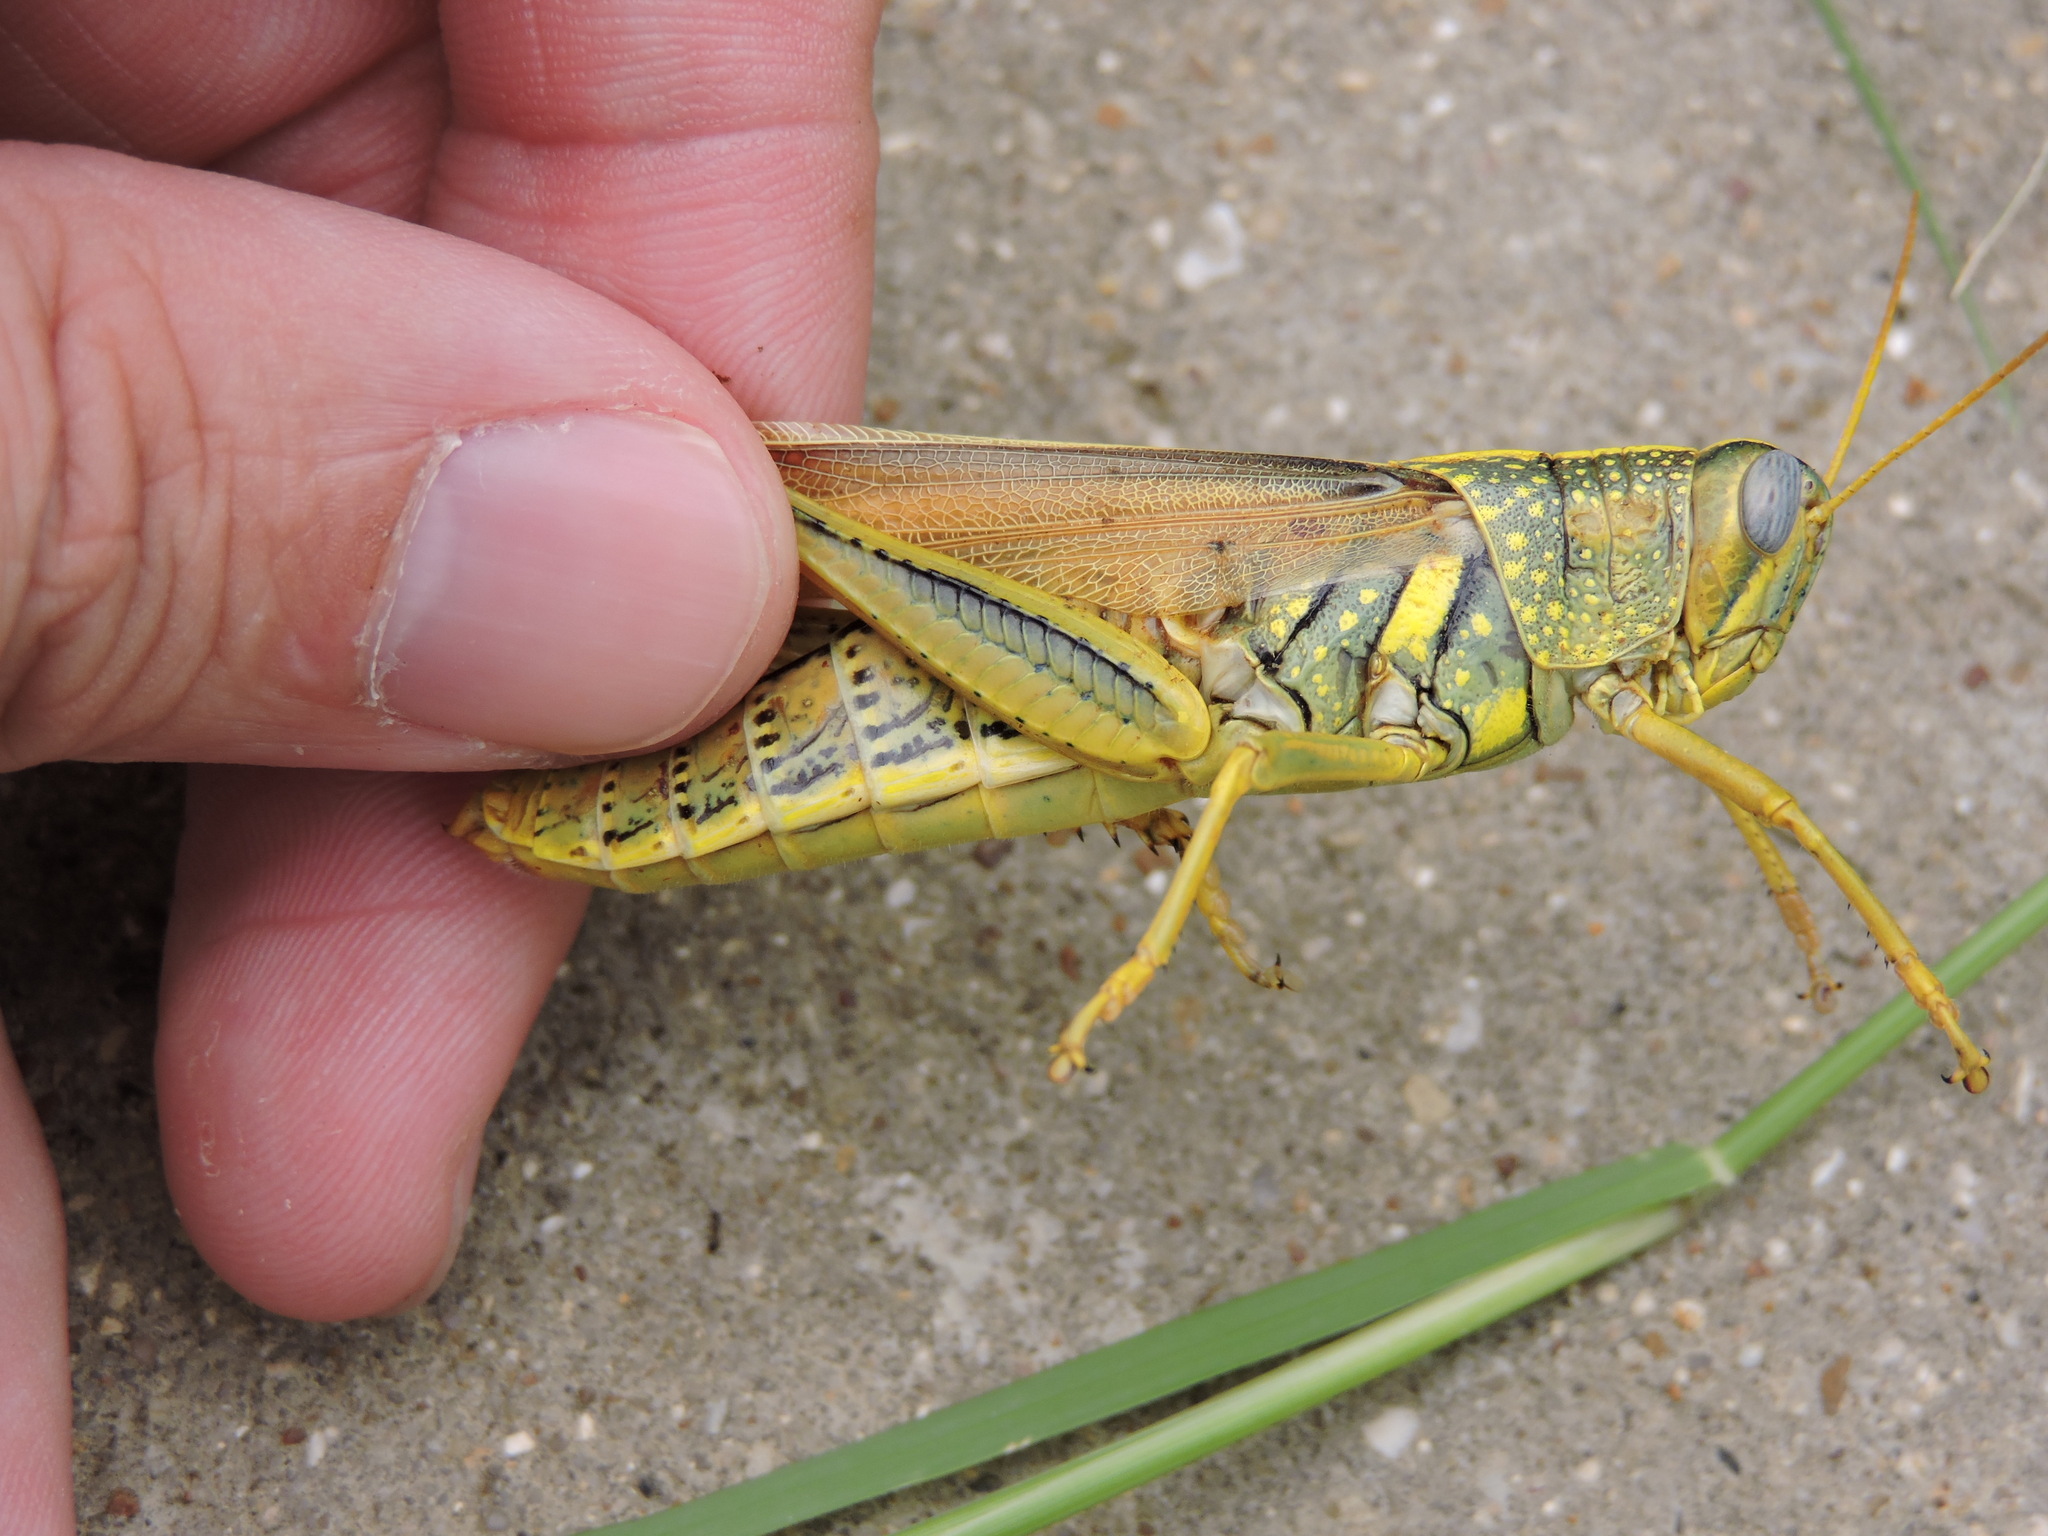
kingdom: Animalia
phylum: Arthropoda
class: Insecta
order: Orthoptera
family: Acrididae
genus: Schistocerca
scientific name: Schistocerca lineata
